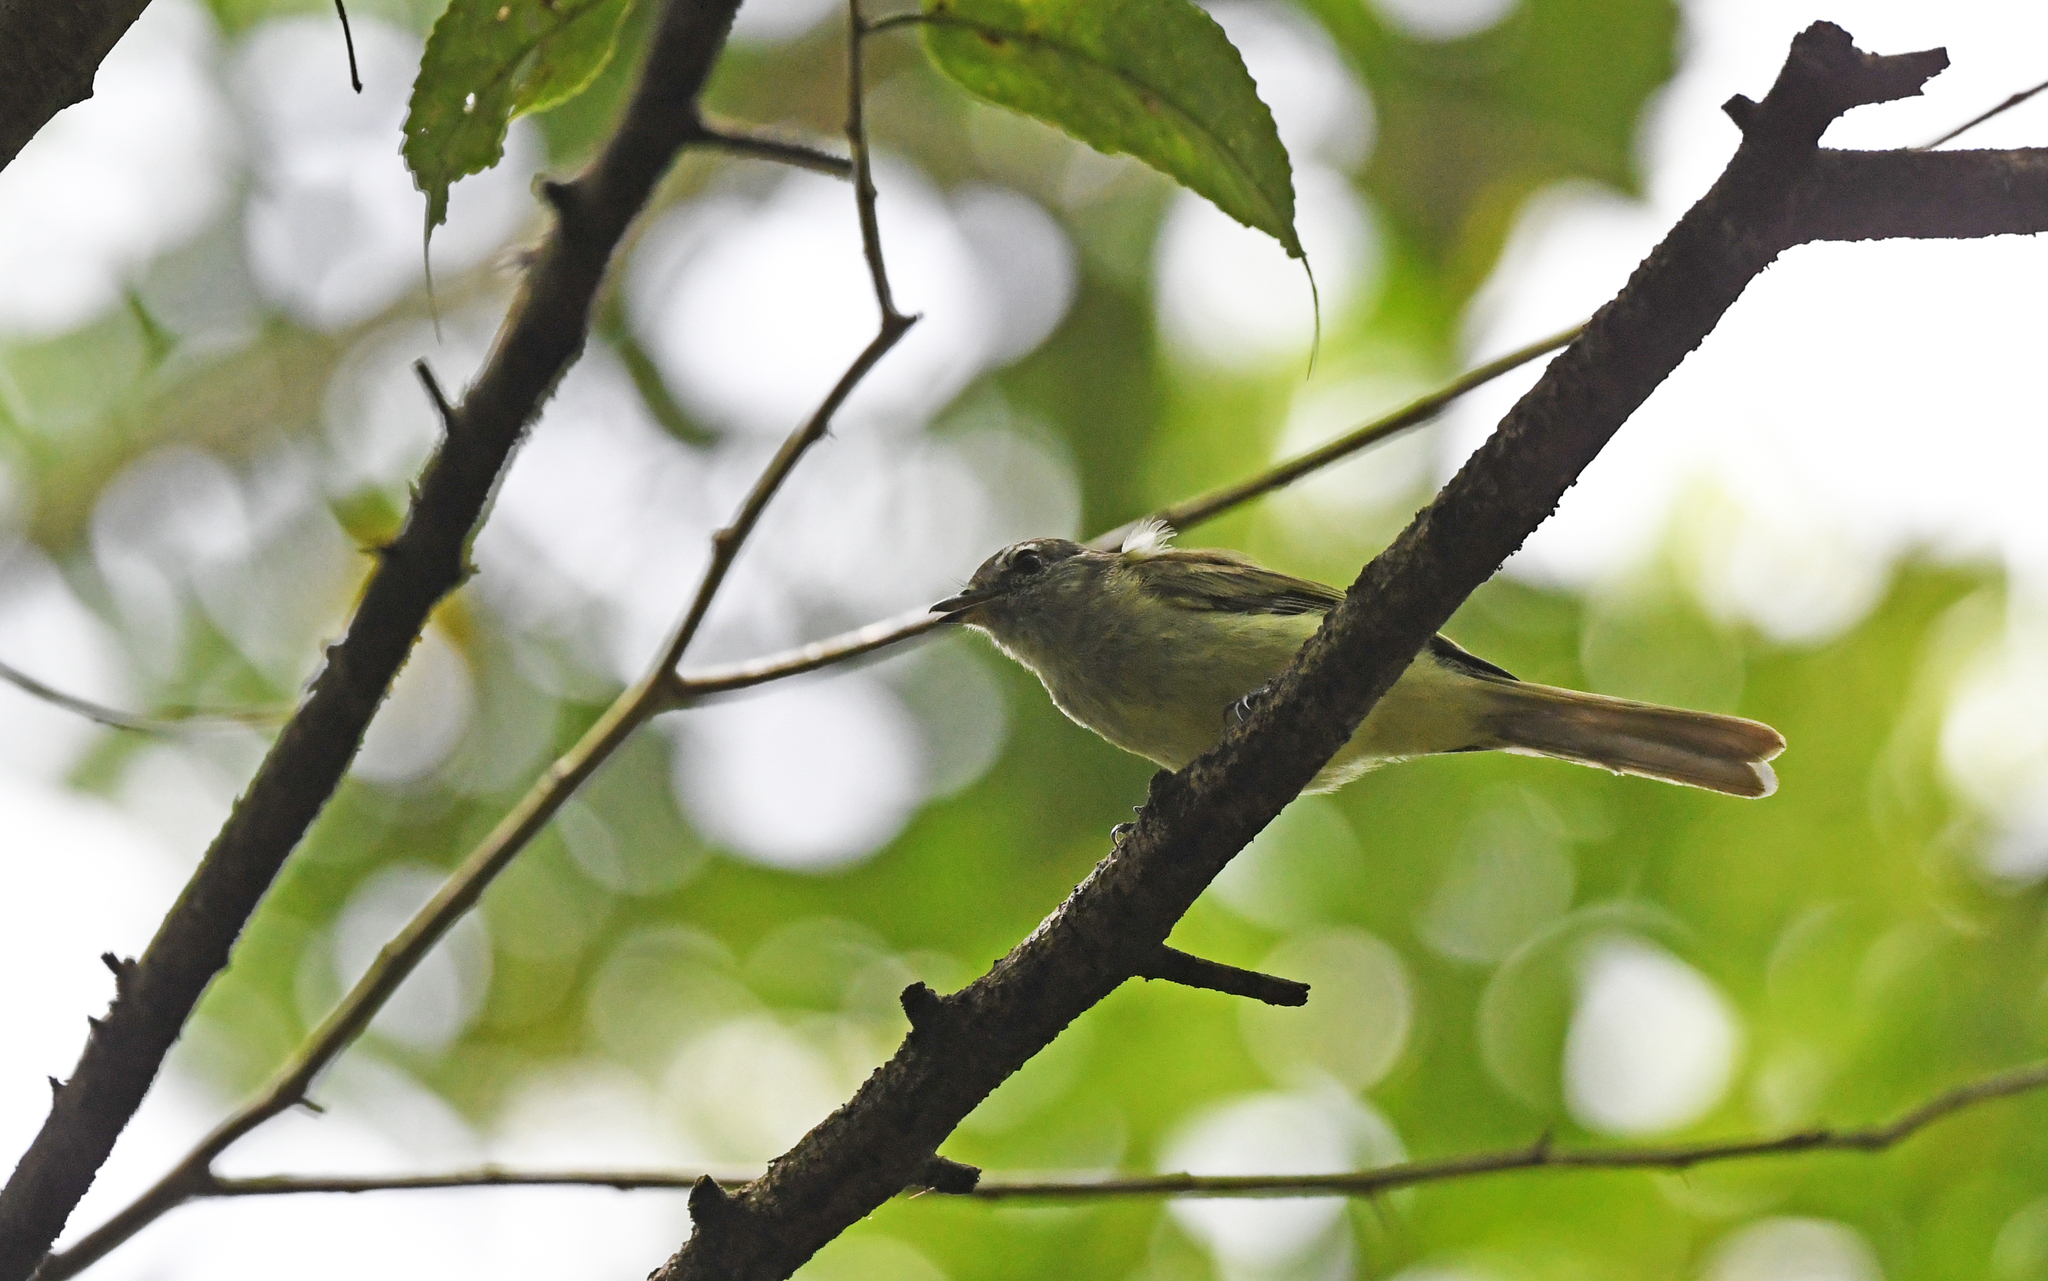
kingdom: Animalia
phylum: Chordata
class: Aves
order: Passeriformes
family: Tyrannidae
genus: Phaeomyias
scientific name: Phaeomyias murina
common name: Mouse-colored tyrannulet
